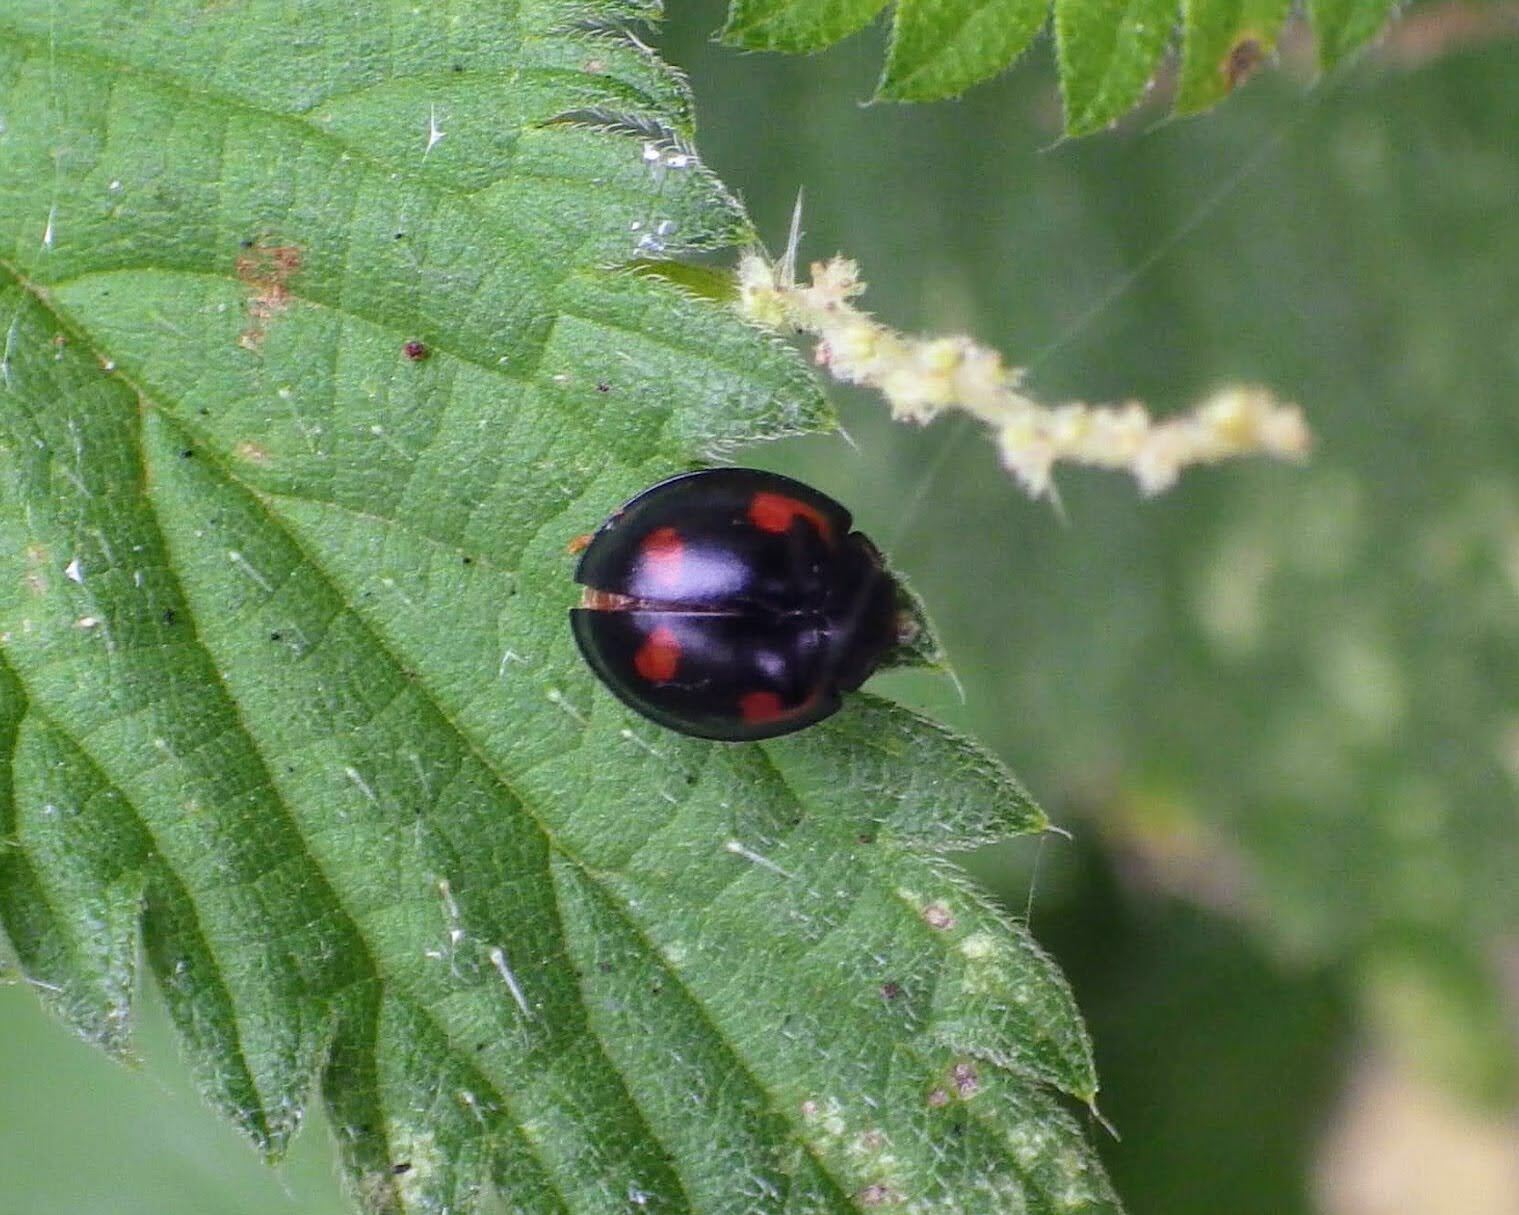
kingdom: Animalia
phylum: Arthropoda
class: Insecta
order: Coleoptera
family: Coccinellidae
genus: Brumus
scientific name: Brumus quadripustulatus
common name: Ladybird beetle
